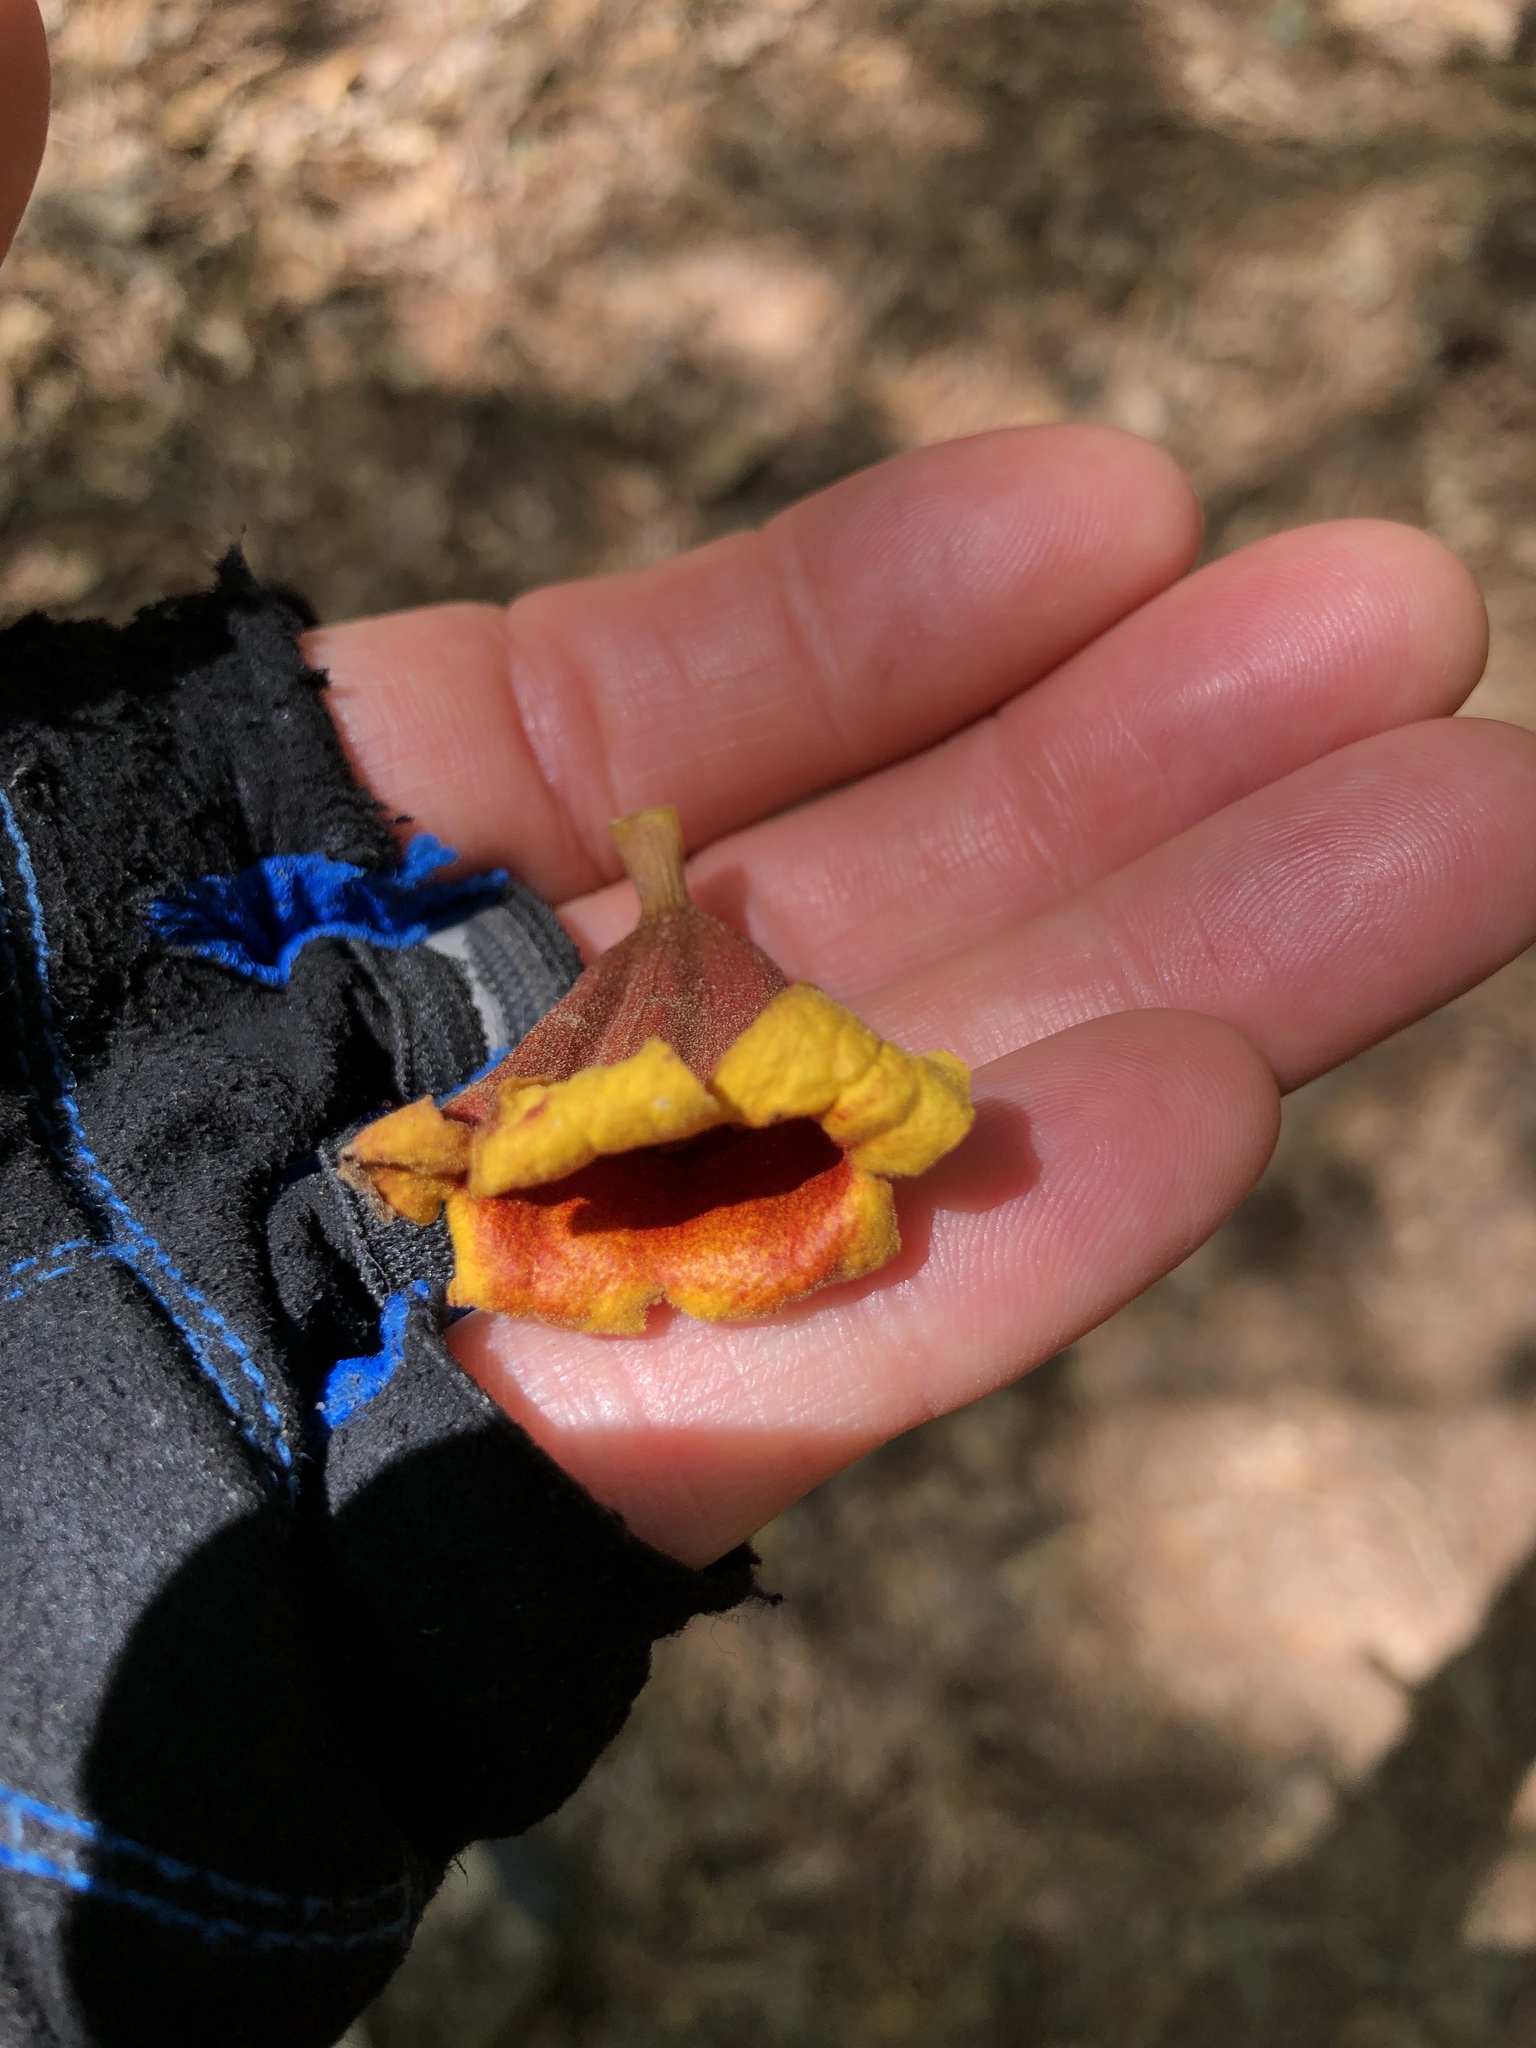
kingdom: Plantae
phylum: Tracheophyta
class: Magnoliopsida
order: Lamiales
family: Bignoniaceae
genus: Bignonia
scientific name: Bignonia capreolata
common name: Crossvine
